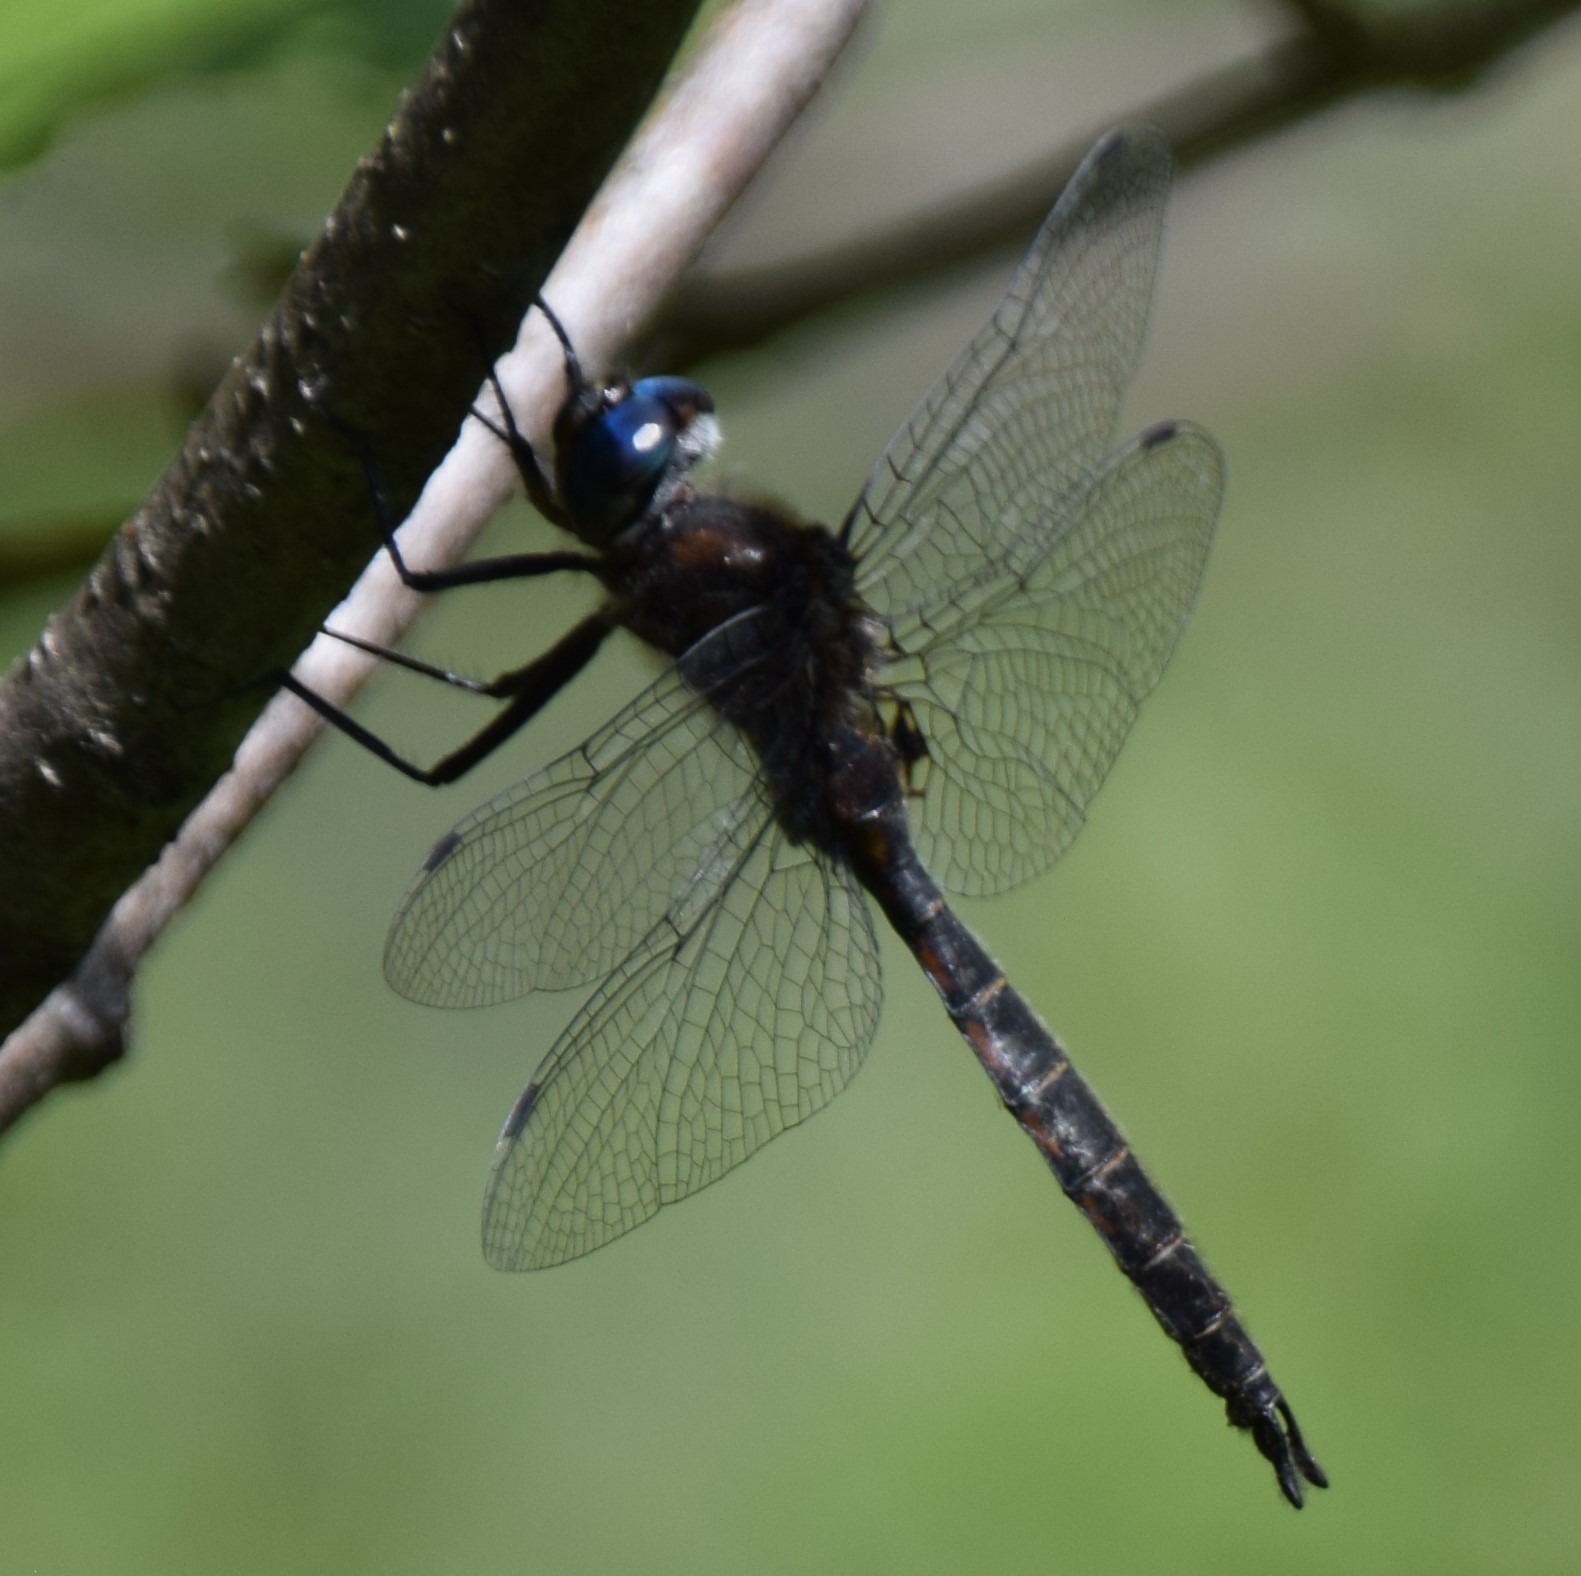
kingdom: Animalia
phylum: Arthropoda
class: Insecta
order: Odonata
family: Corduliidae
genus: Epitheca
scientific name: Epitheca spinigera
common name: Spiny baskettail
